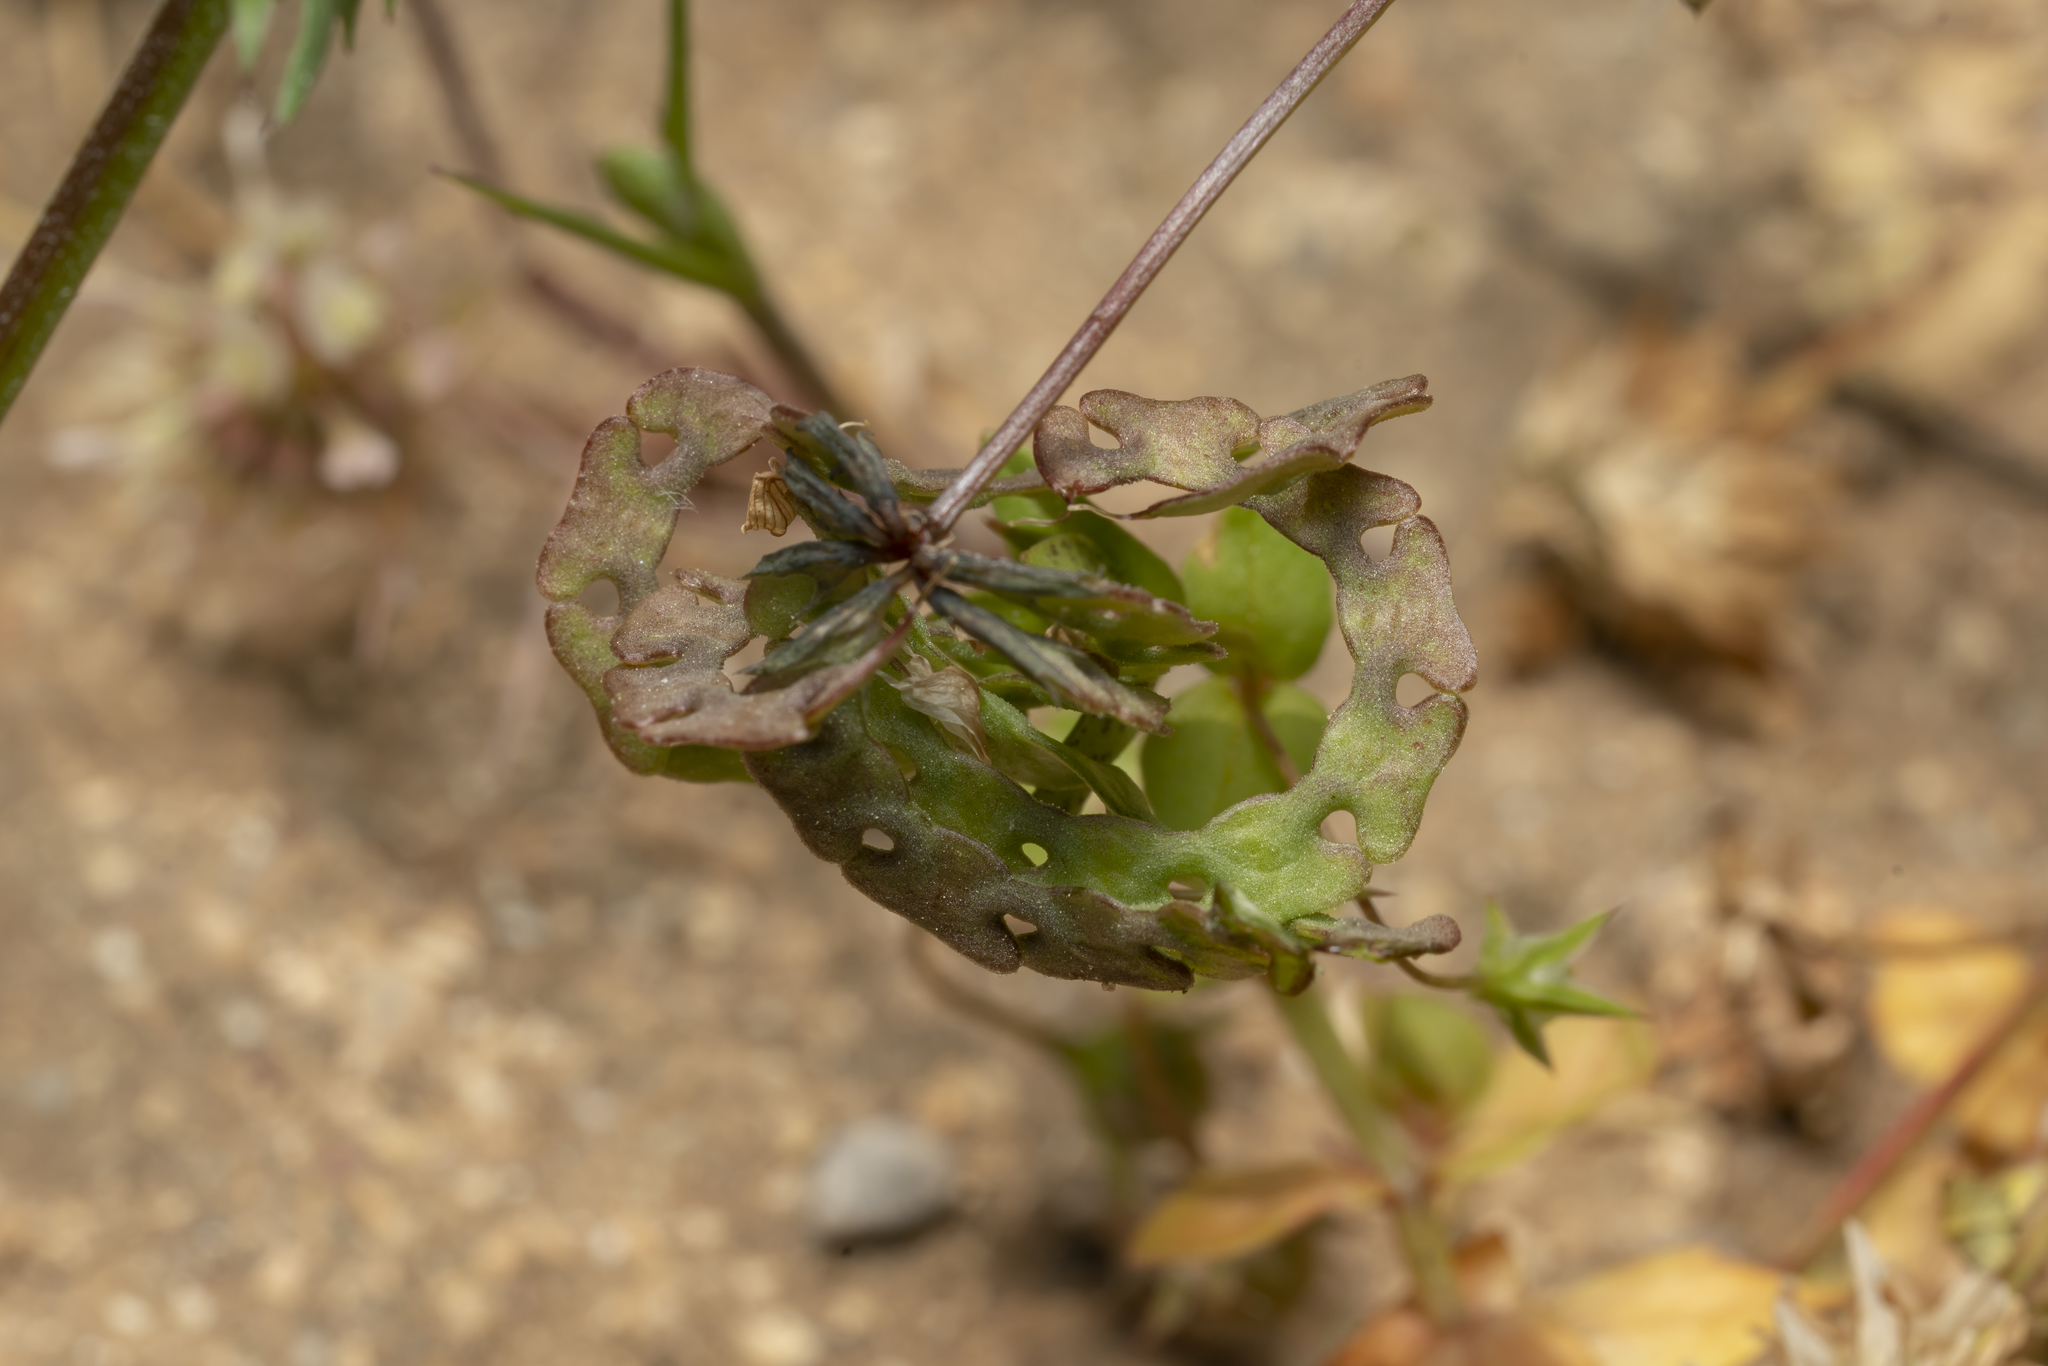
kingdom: Plantae
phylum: Tracheophyta
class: Magnoliopsida
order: Fabales
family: Fabaceae
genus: Hippocrepis
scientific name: Hippocrepis multisiliquosa
